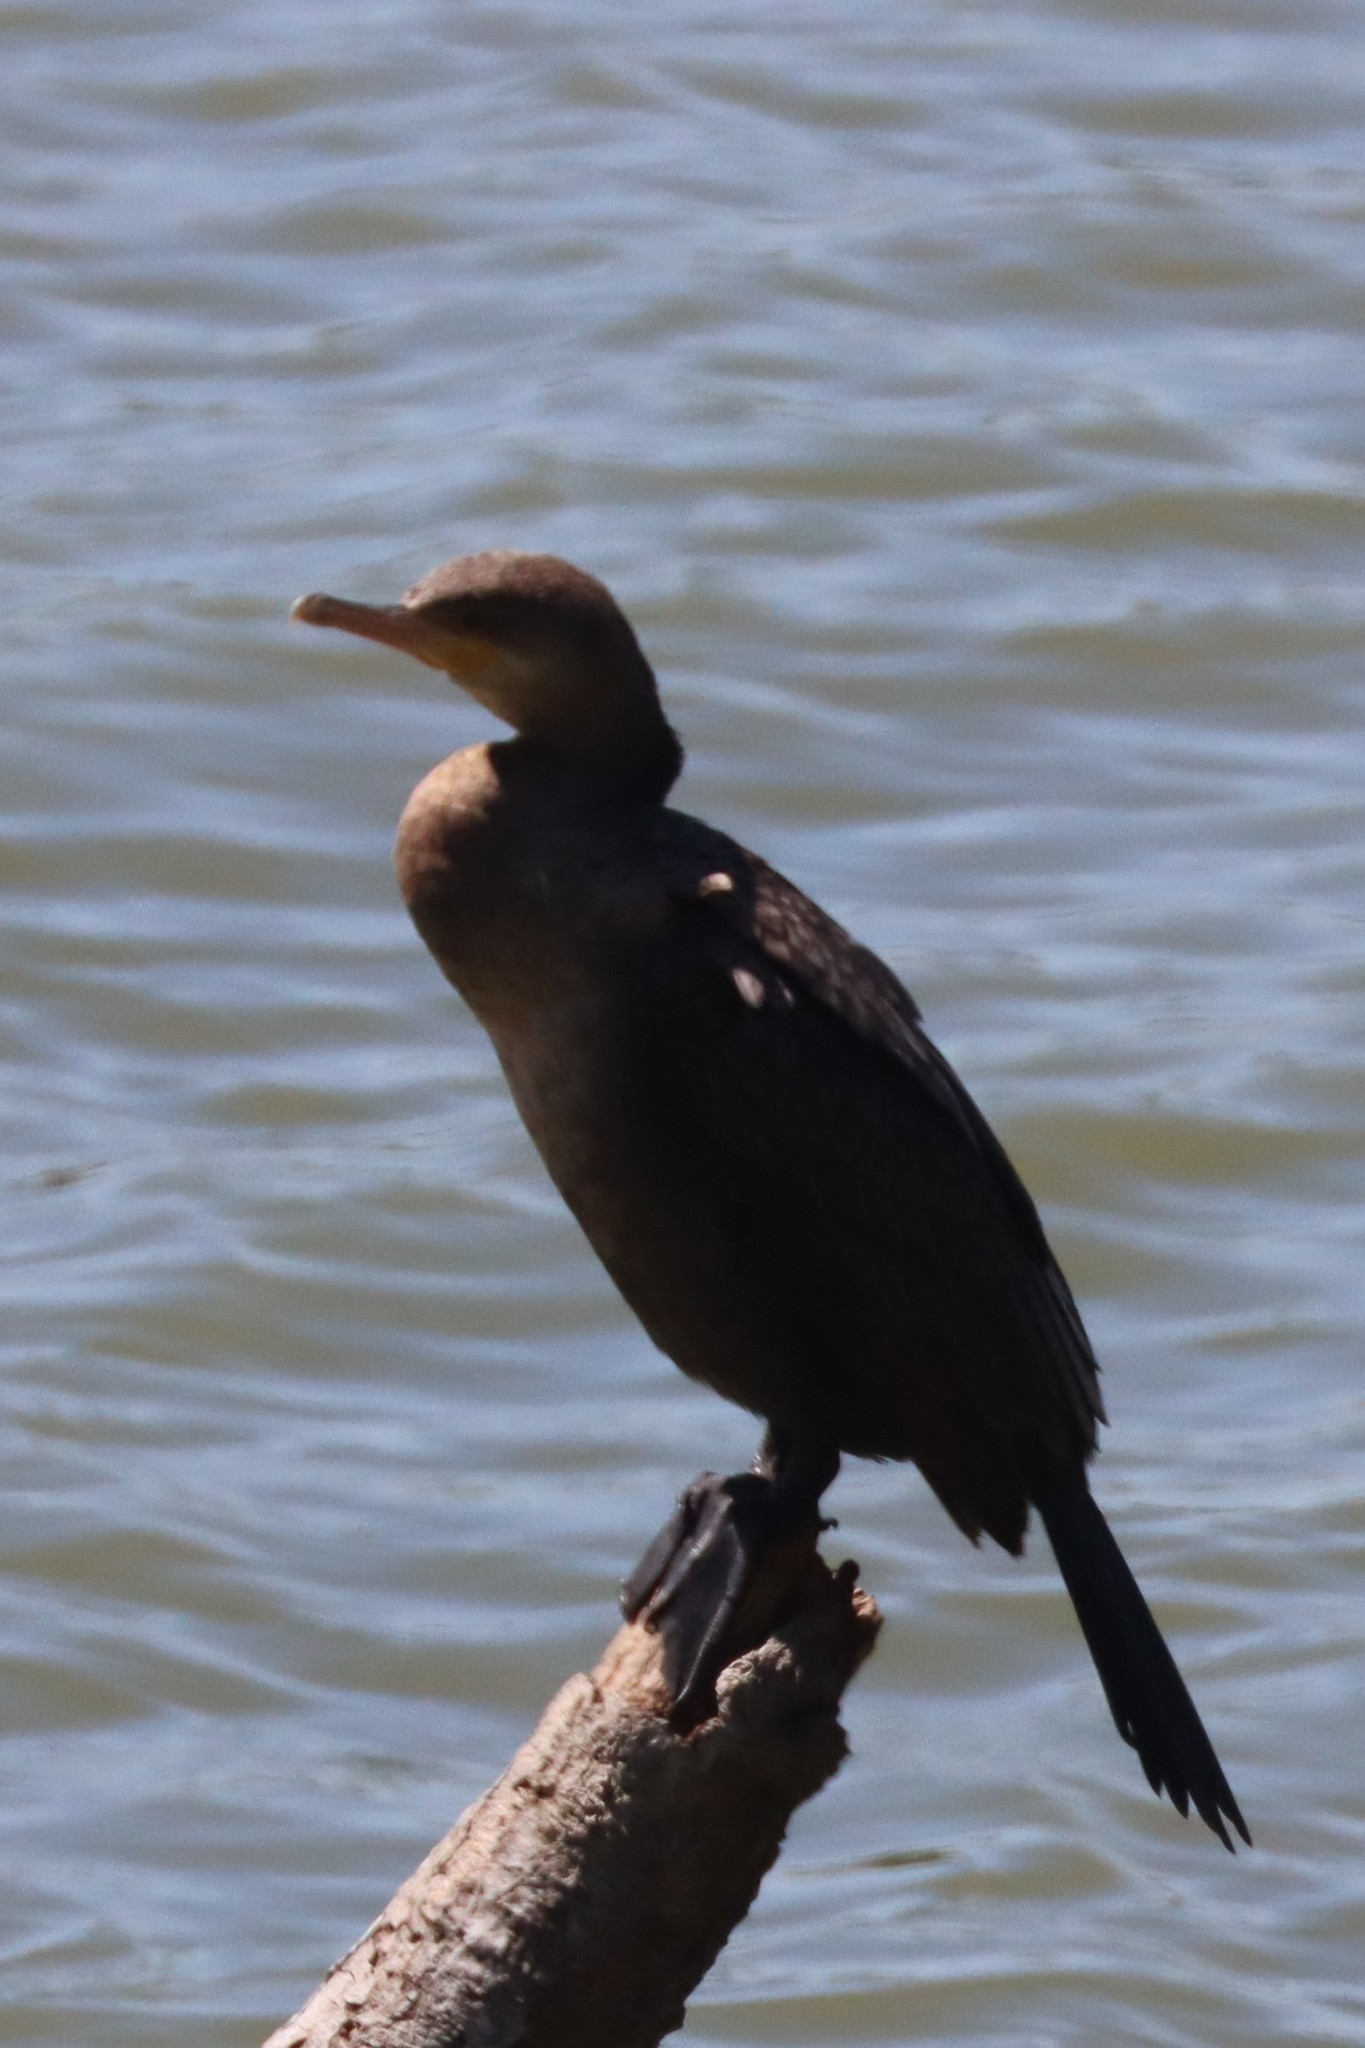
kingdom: Animalia
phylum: Chordata
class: Aves
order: Suliformes
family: Phalacrocoracidae
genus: Phalacrocorax
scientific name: Phalacrocorax brasilianus
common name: Neotropic cormorant
